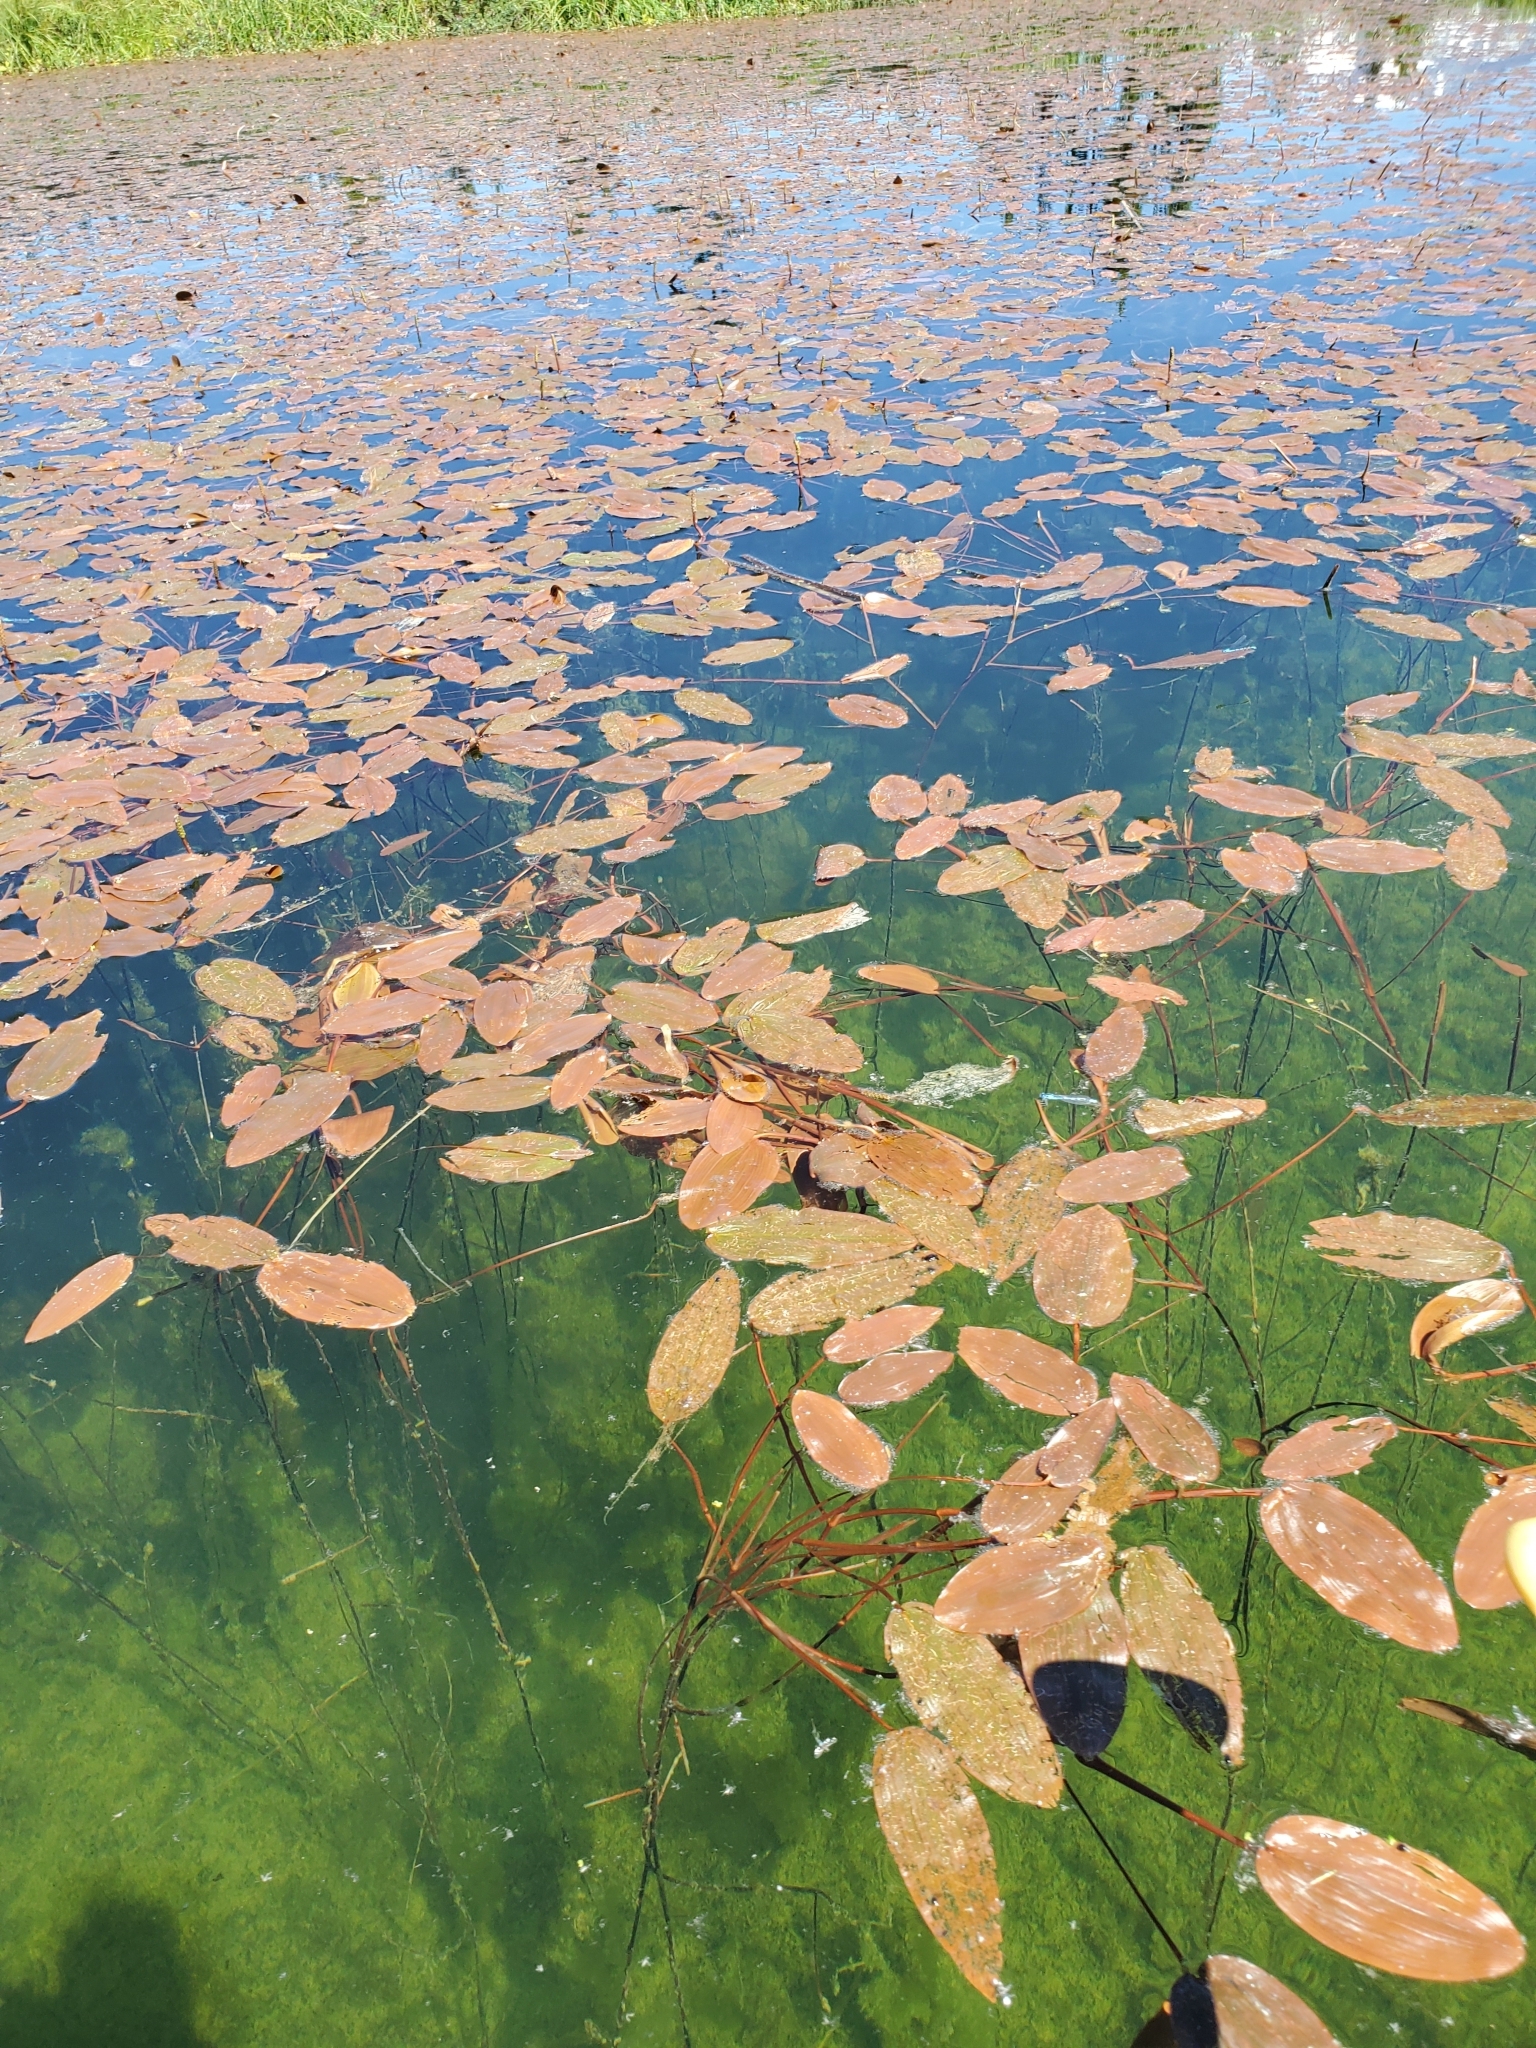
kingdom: Plantae
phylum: Tracheophyta
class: Liliopsida
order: Alismatales
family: Potamogetonaceae
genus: Potamogeton
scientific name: Potamogeton natans
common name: Broad-leaved pondweed
